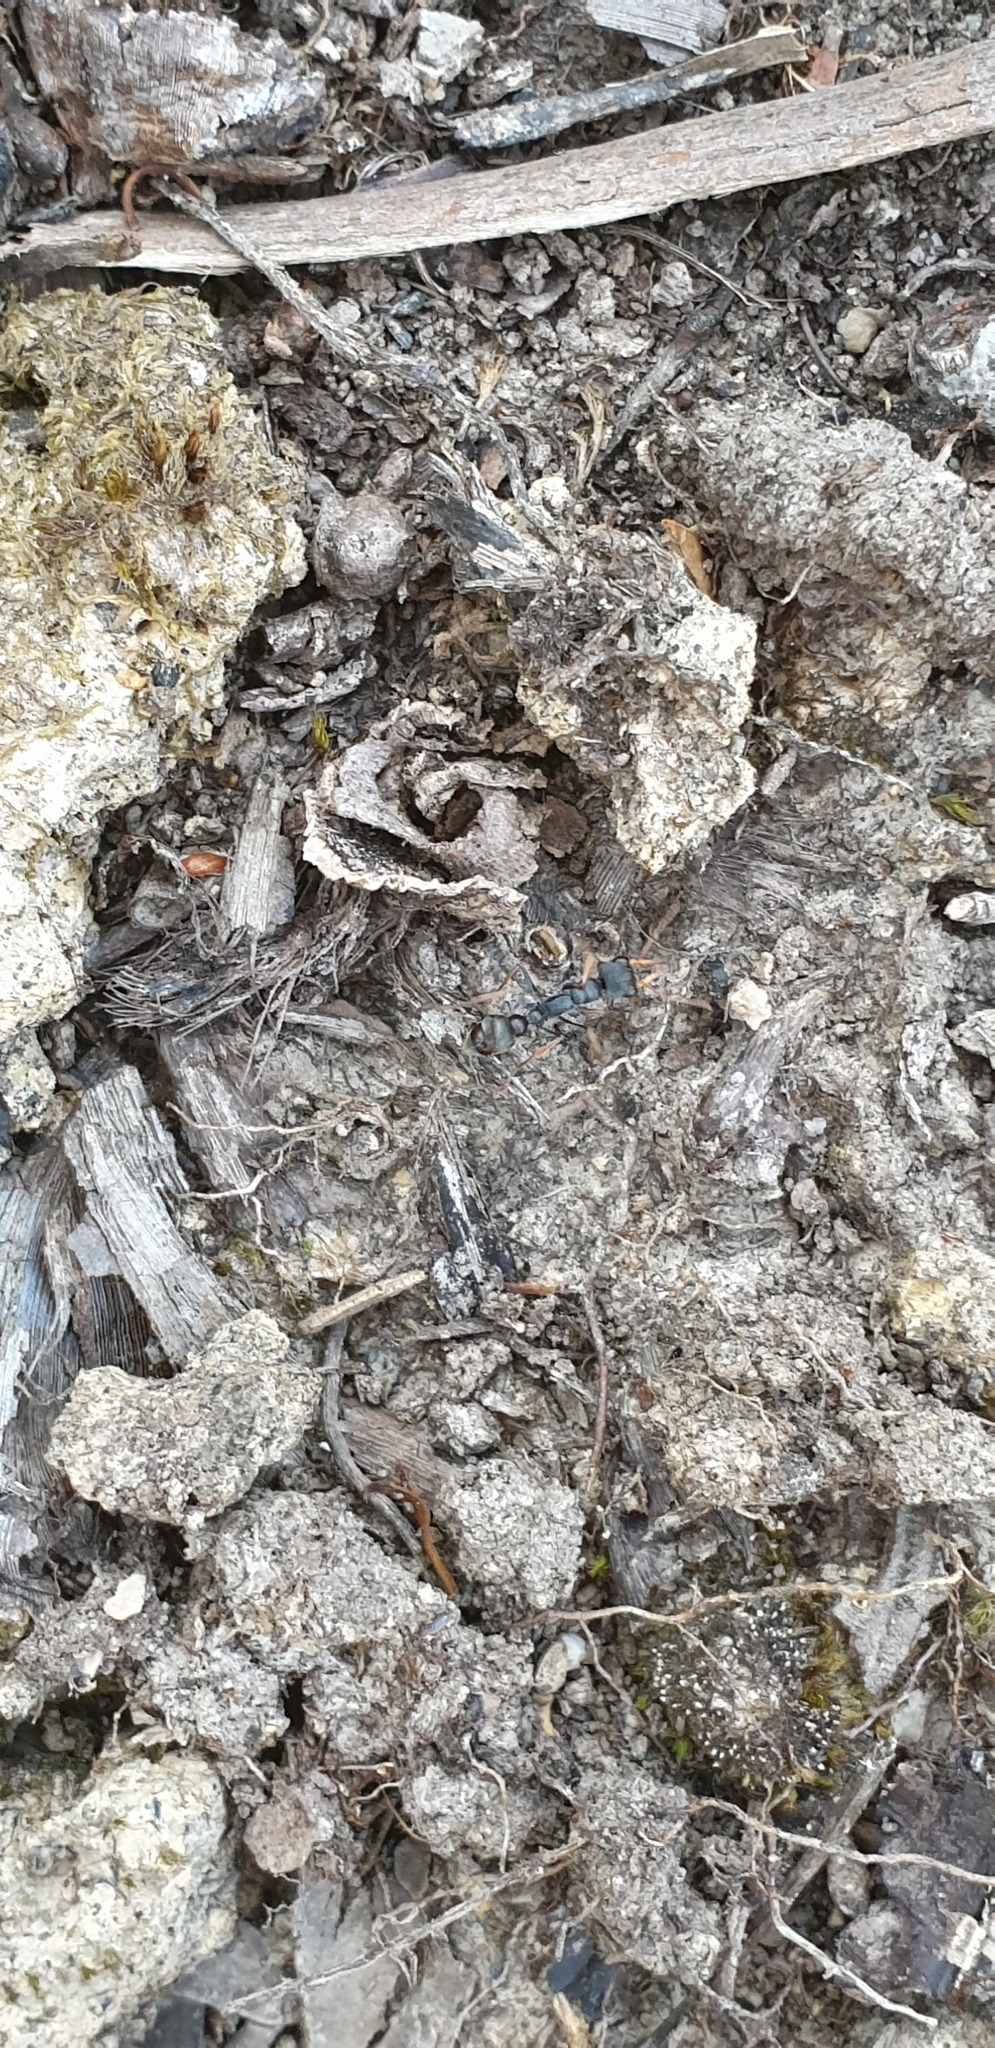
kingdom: Animalia
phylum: Arthropoda
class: Insecta
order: Hymenoptera
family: Formicidae
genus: Myrmecia
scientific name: Myrmecia pilosula
